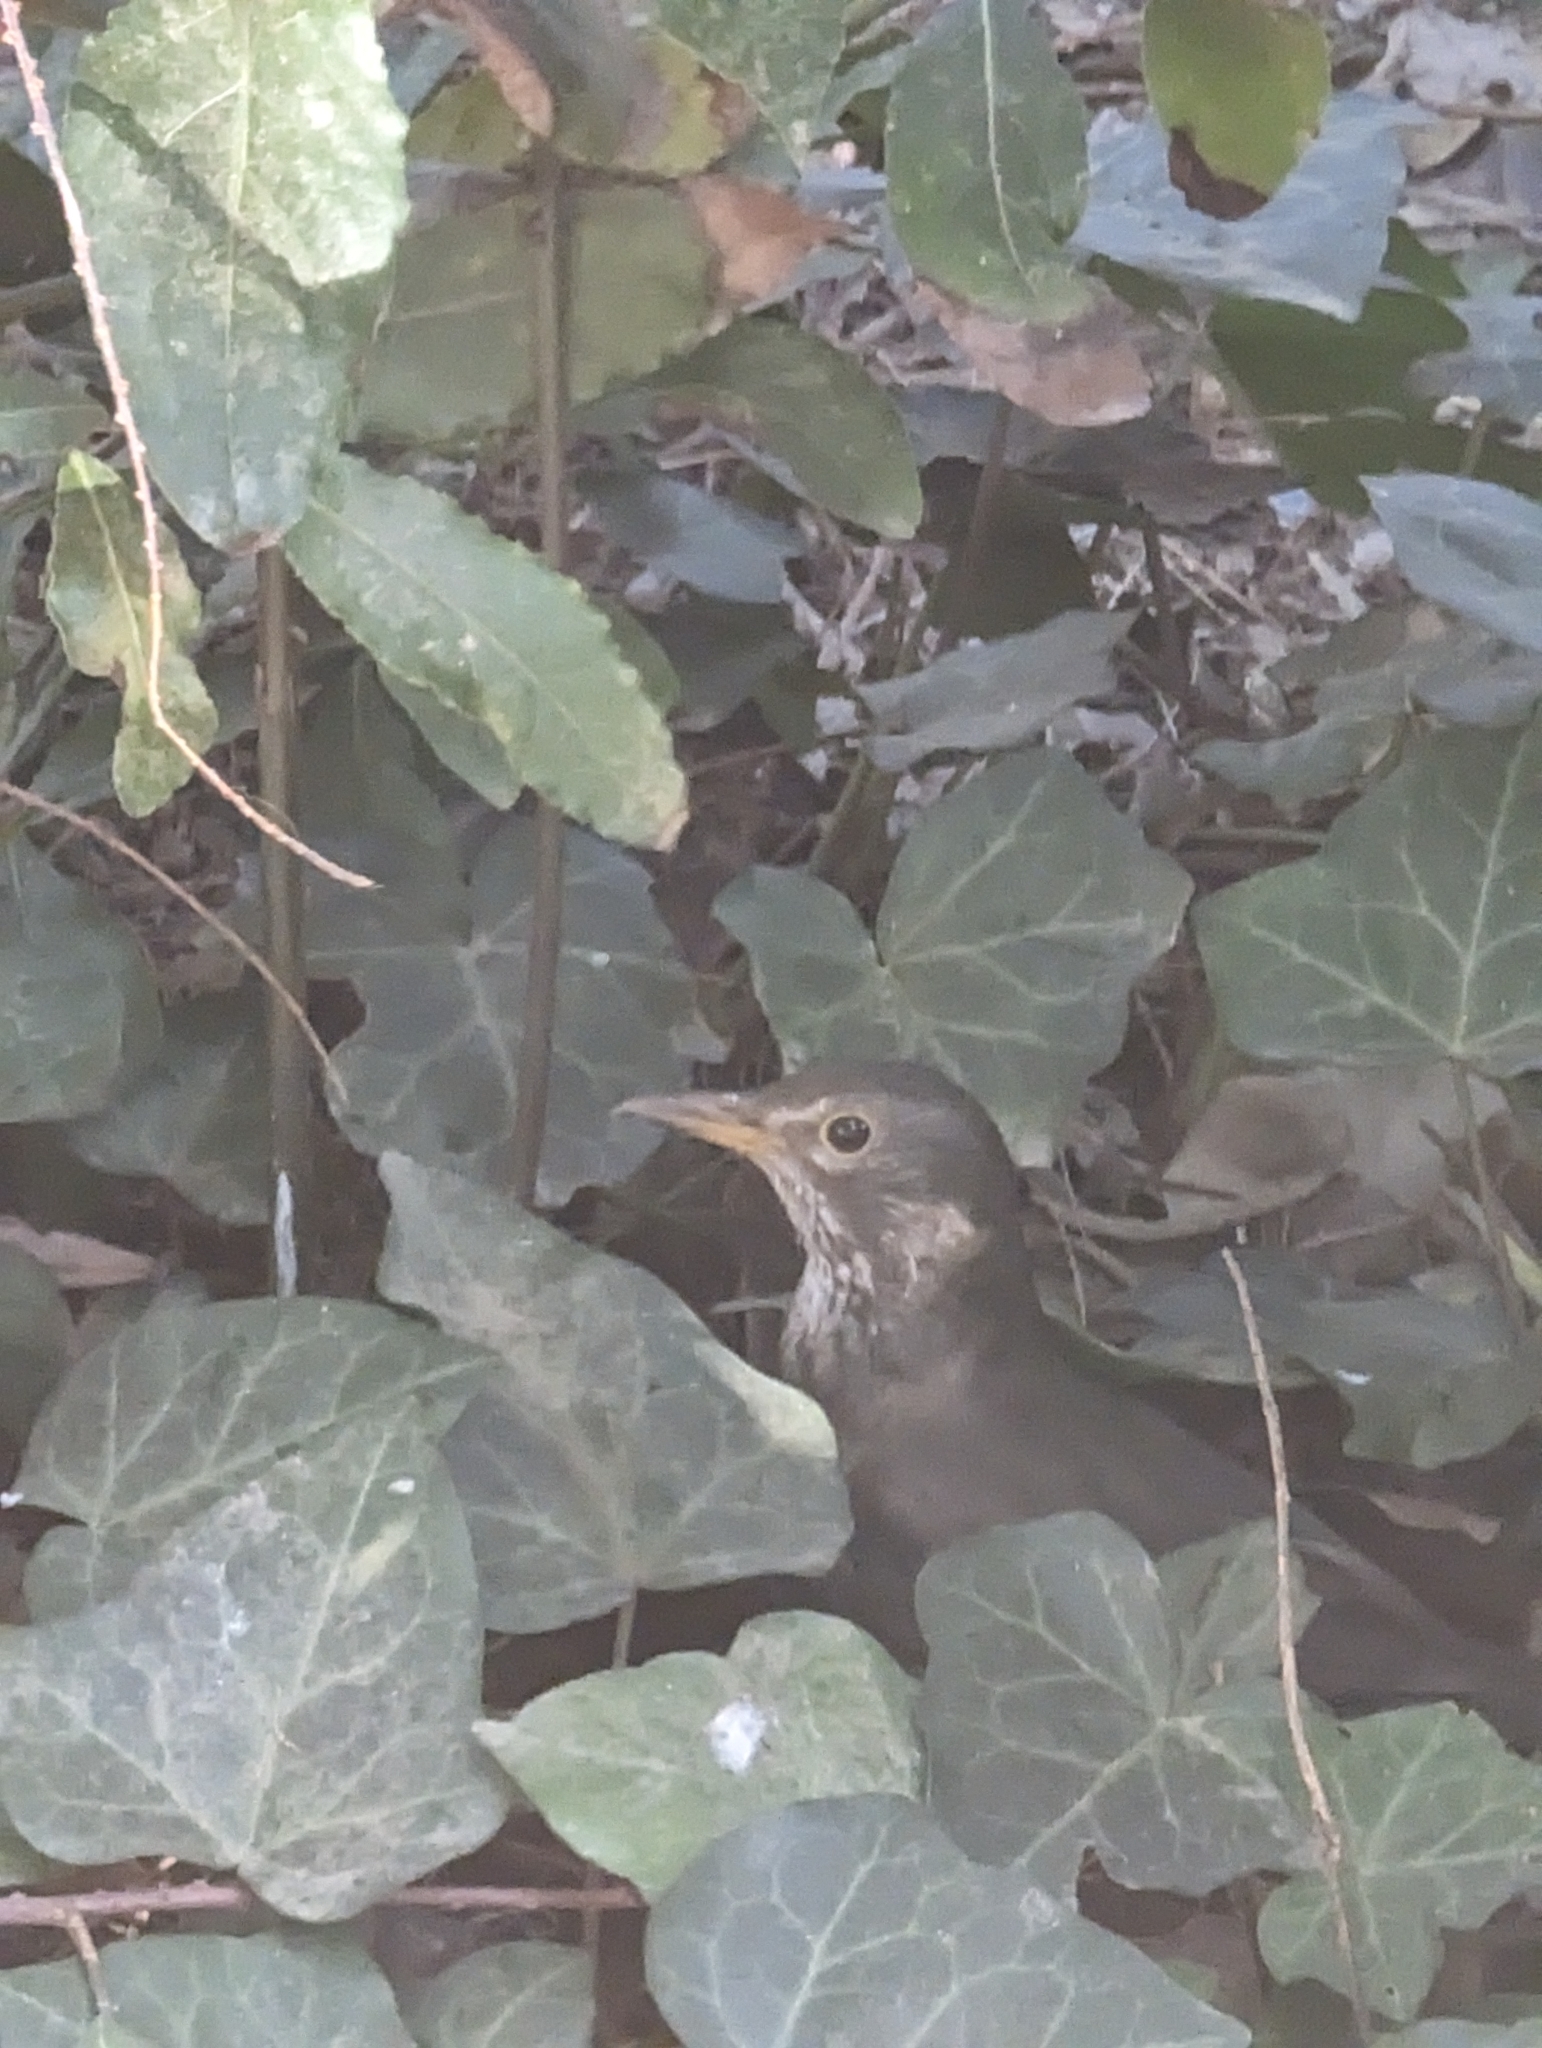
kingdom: Animalia
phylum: Chordata
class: Aves
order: Passeriformes
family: Turdidae
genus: Turdus
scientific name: Turdus merula
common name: Common blackbird
